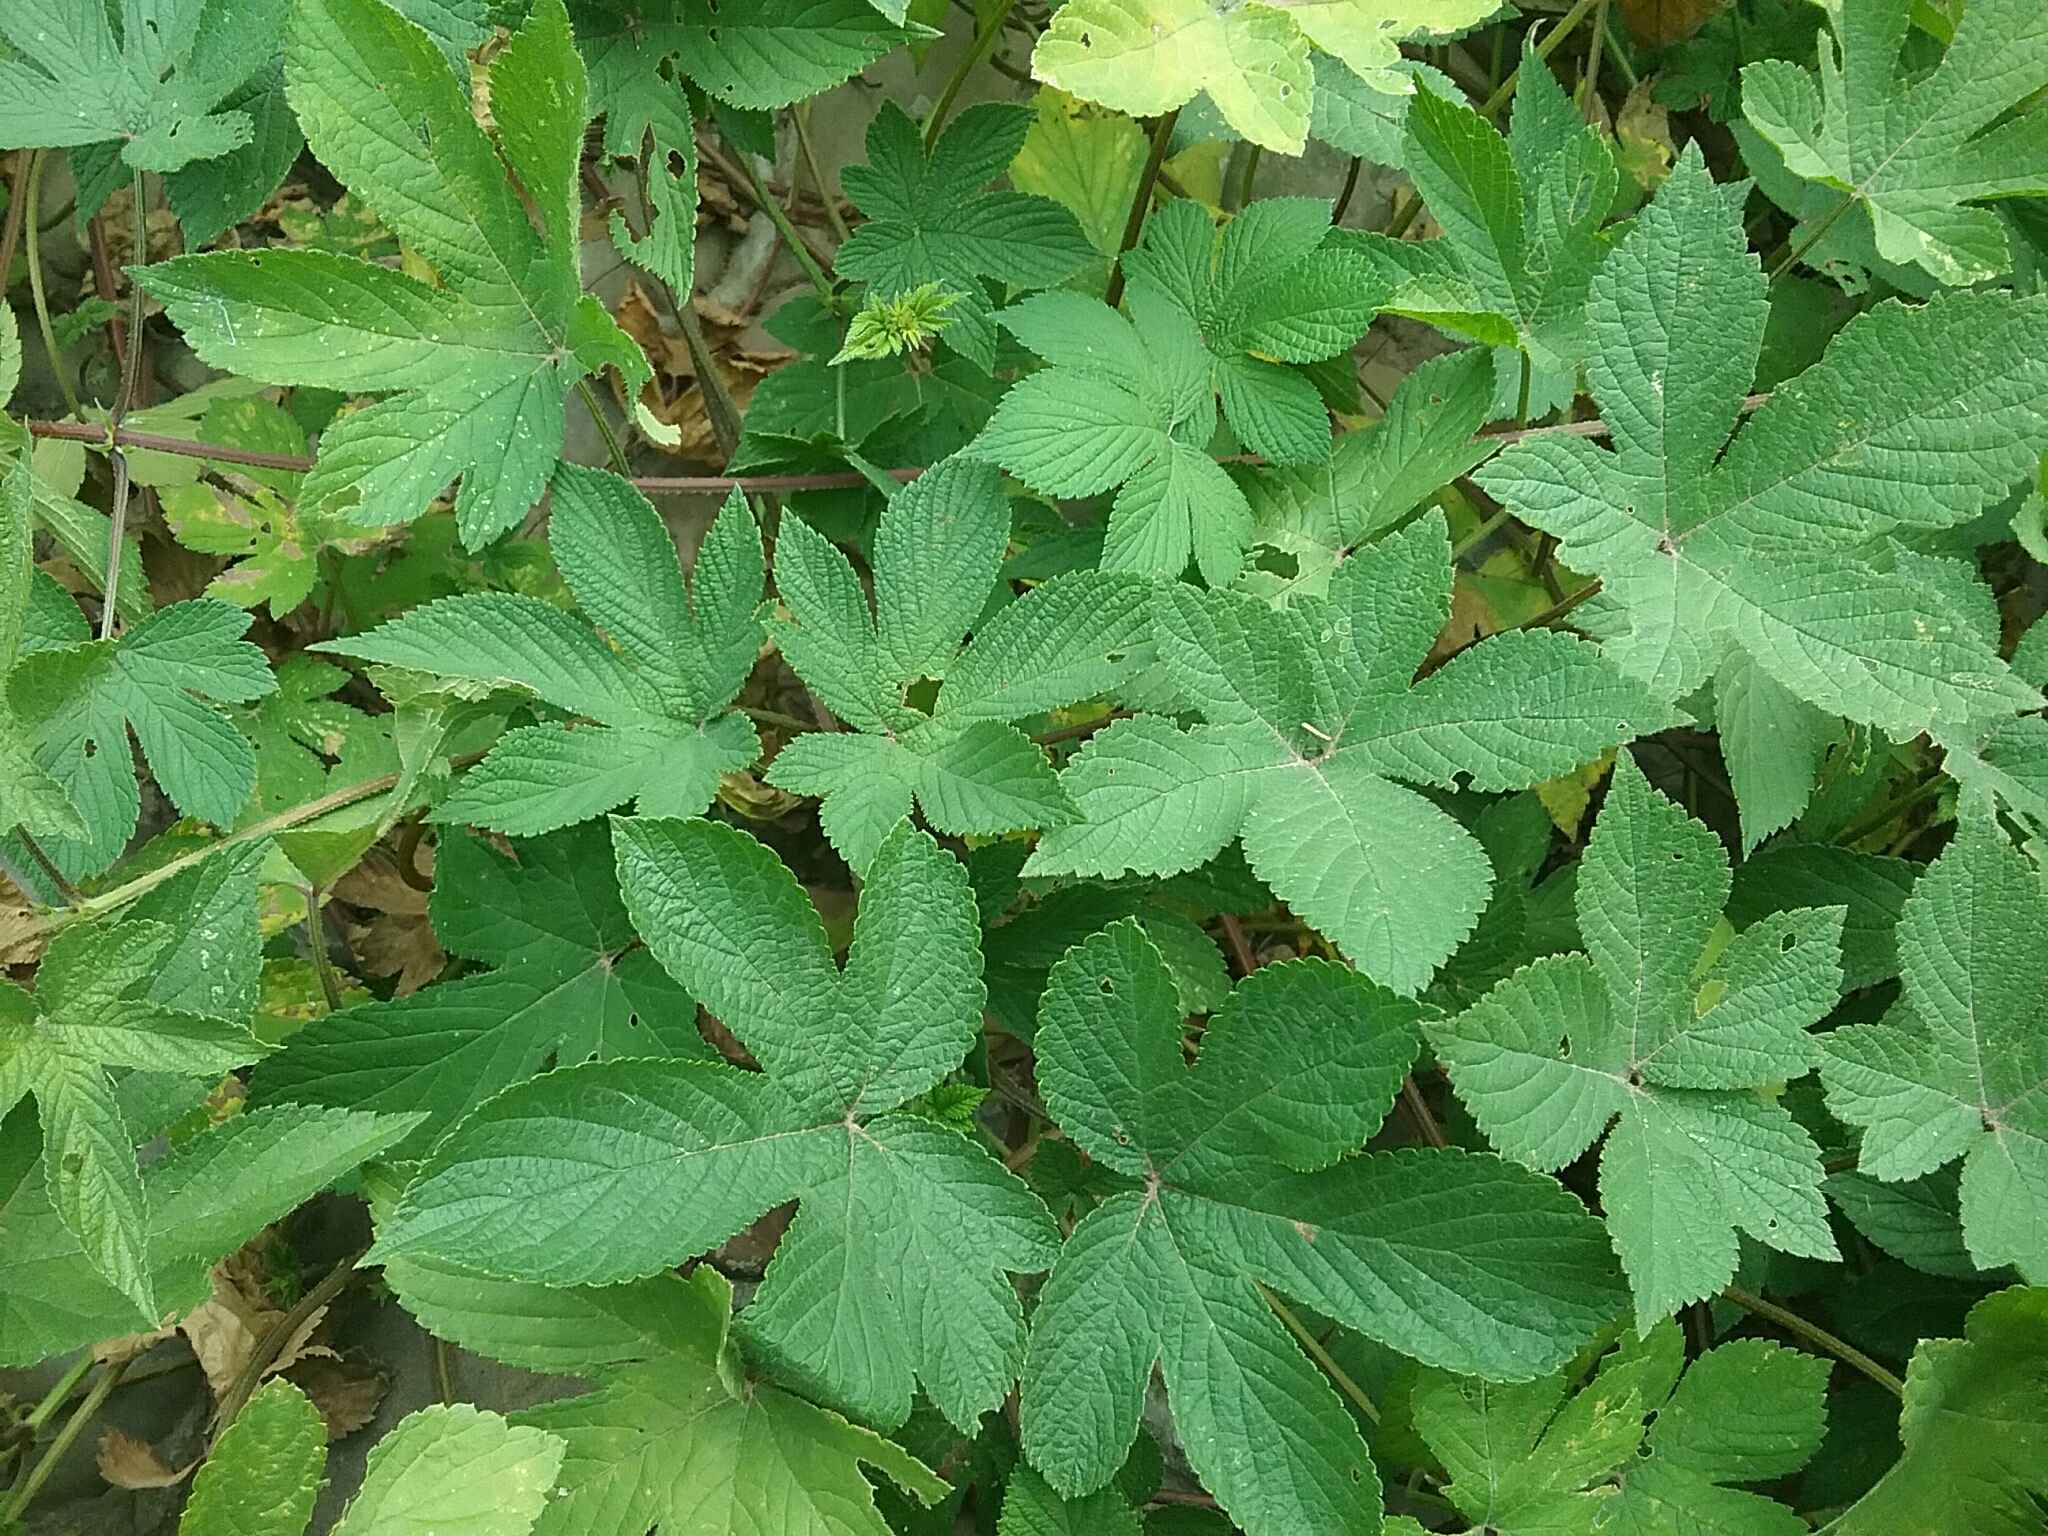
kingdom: Plantae
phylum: Tracheophyta
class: Magnoliopsida
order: Rosales
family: Cannabaceae
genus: Humulus
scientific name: Humulus scandens
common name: Japanese hop
